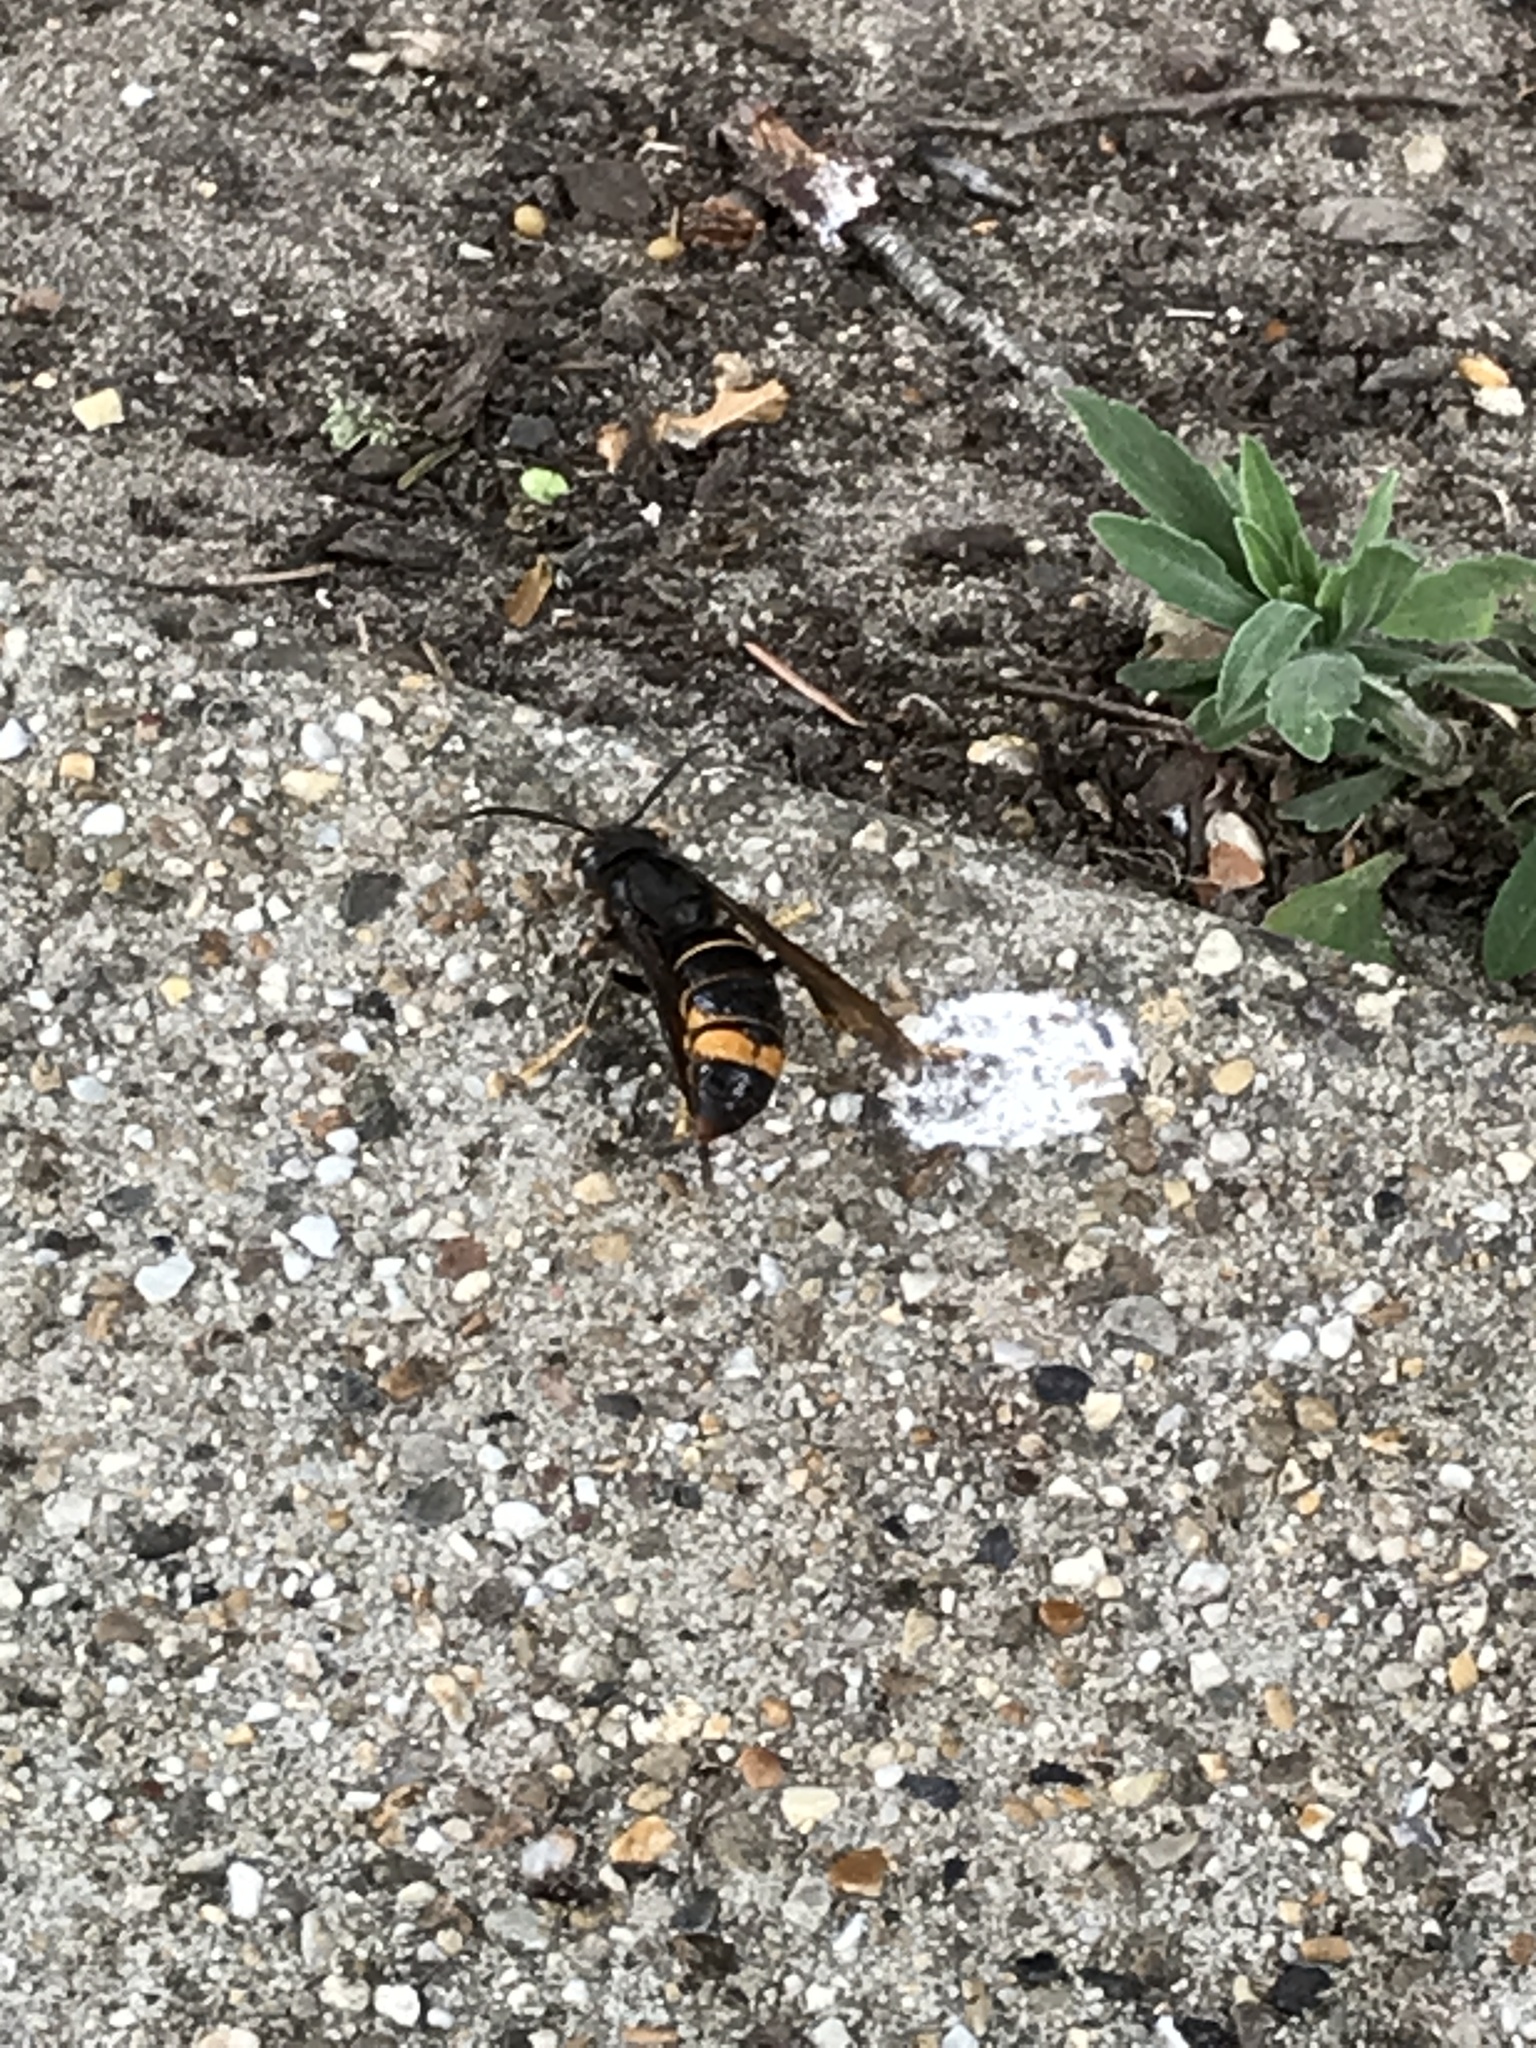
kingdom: Animalia
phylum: Arthropoda
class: Insecta
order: Hymenoptera
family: Vespidae
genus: Vespa
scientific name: Vespa velutina
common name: Asian hornet
